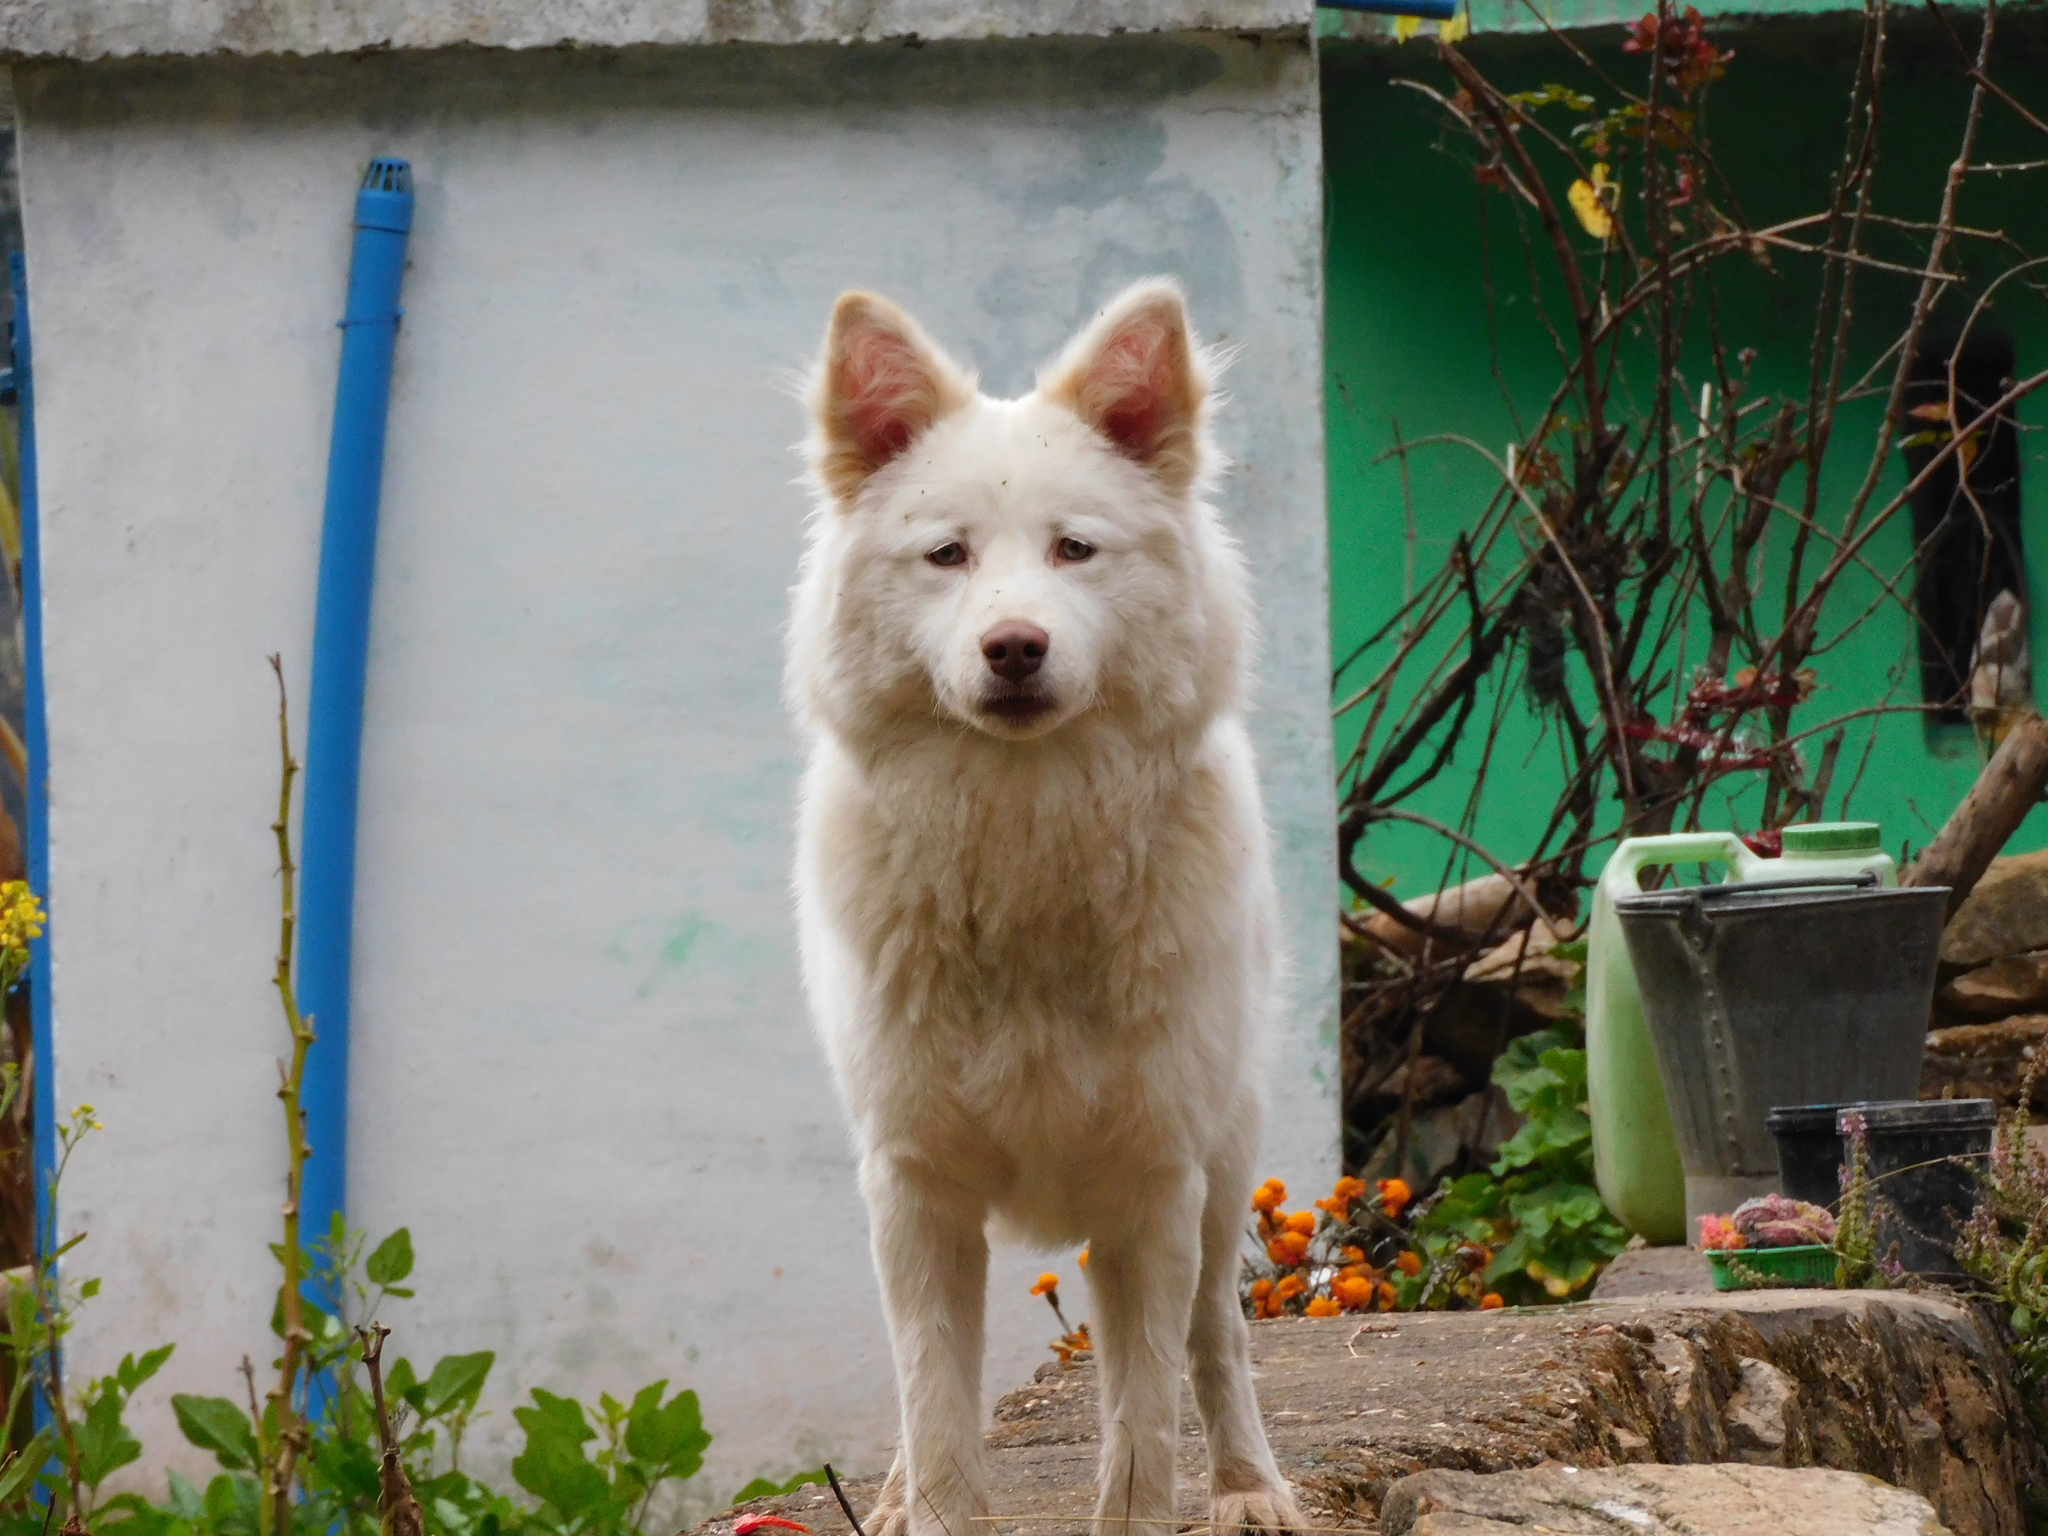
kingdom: Animalia
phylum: Chordata
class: Mammalia
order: Carnivora
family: Canidae
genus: Canis
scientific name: Canis lupus
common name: Gray wolf
